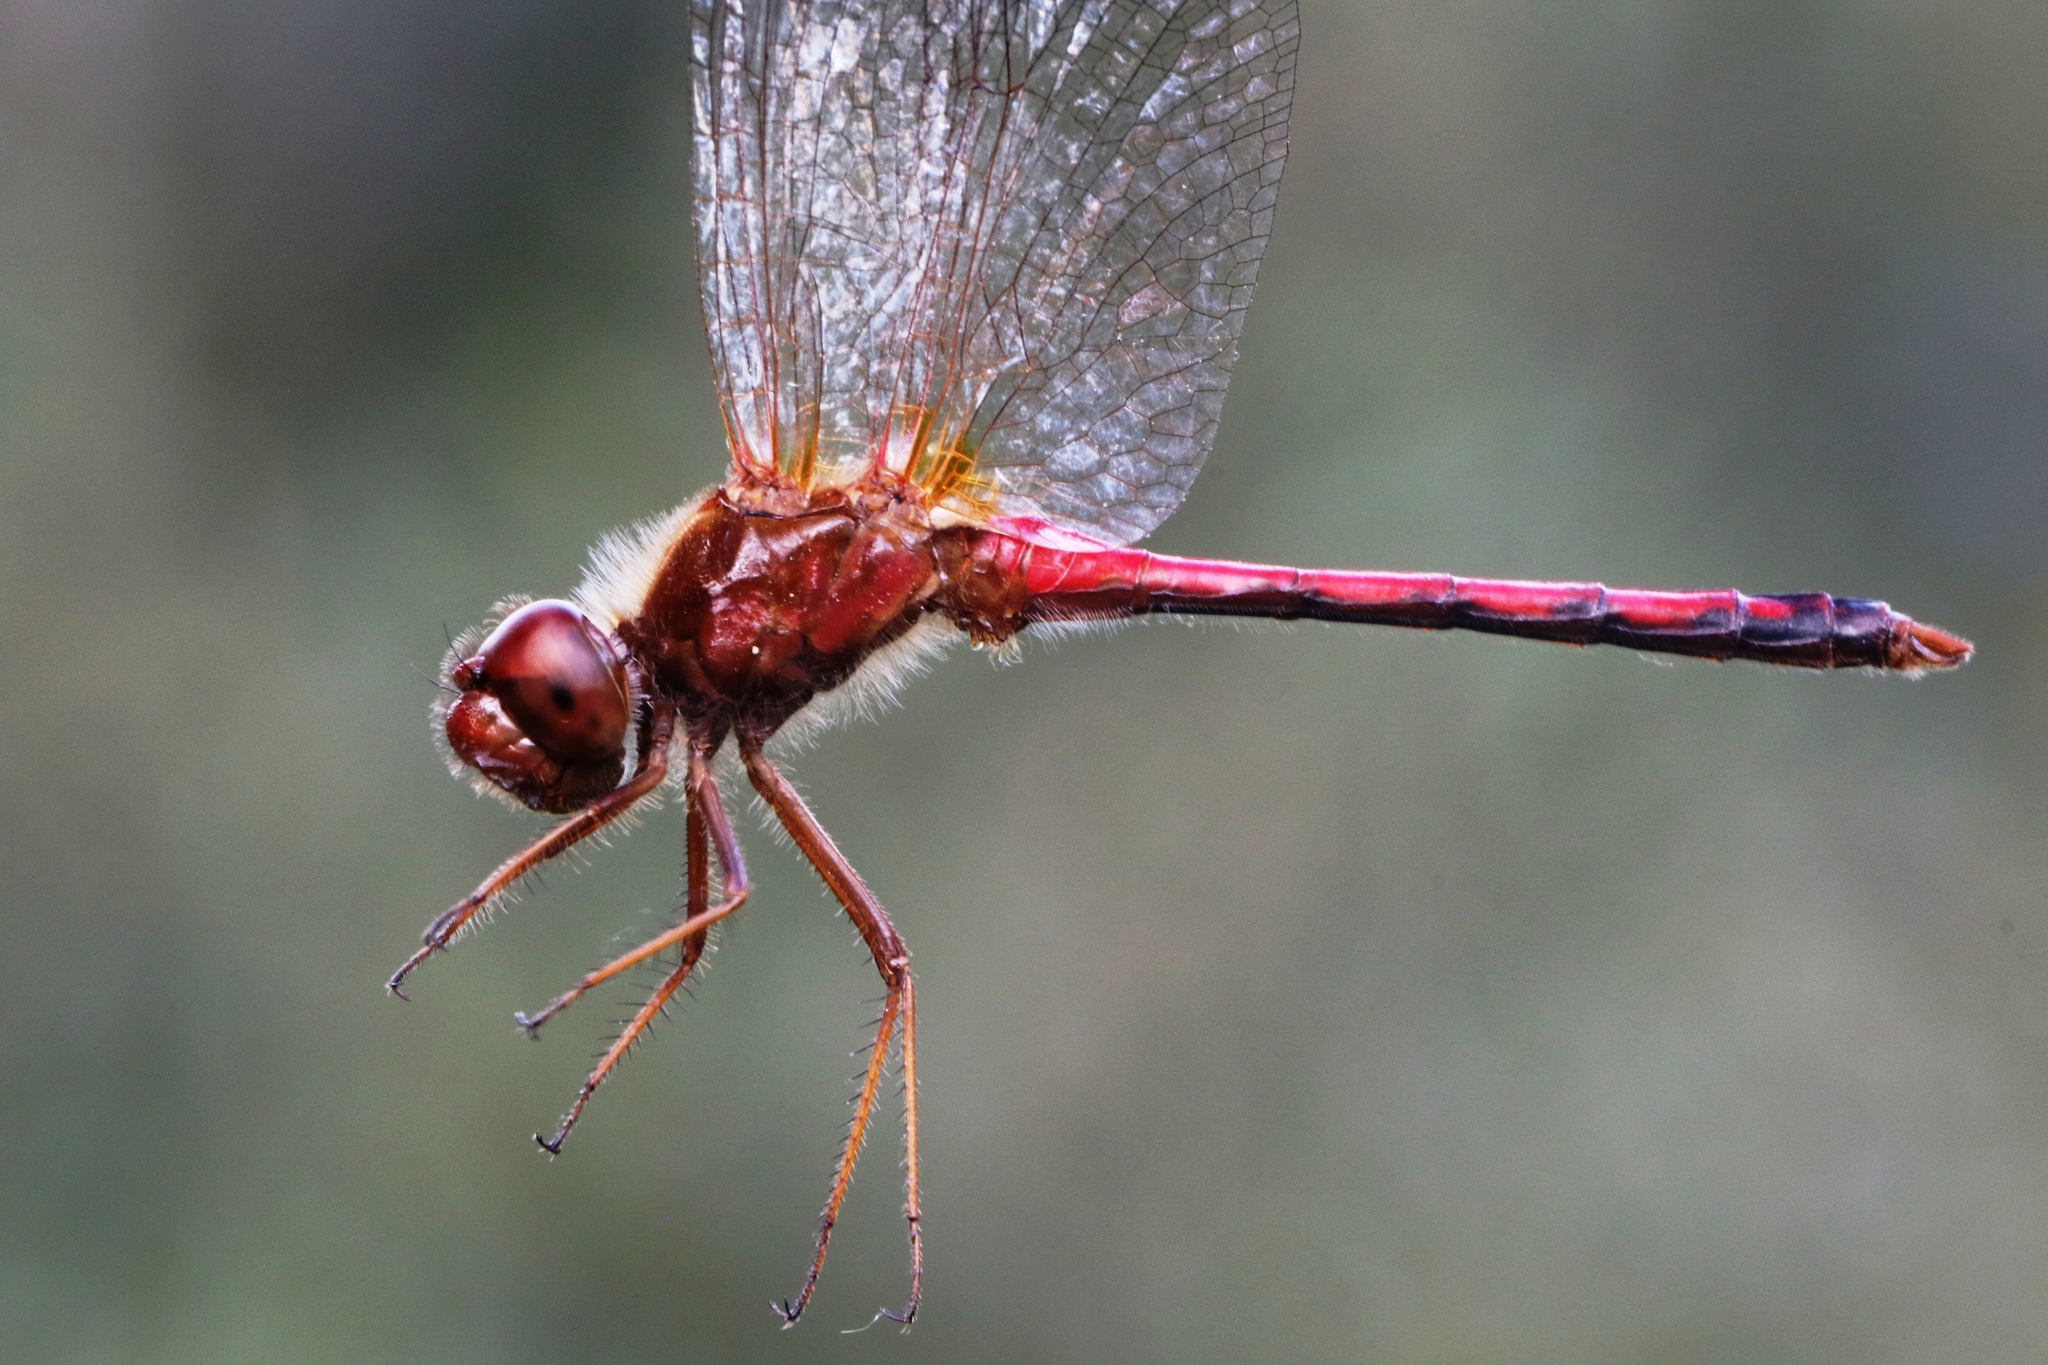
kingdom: Animalia
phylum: Arthropoda
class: Insecta
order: Odonata
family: Libellulidae
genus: Sympetrum
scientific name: Sympetrum vicinum
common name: Autumn meadowhawk
